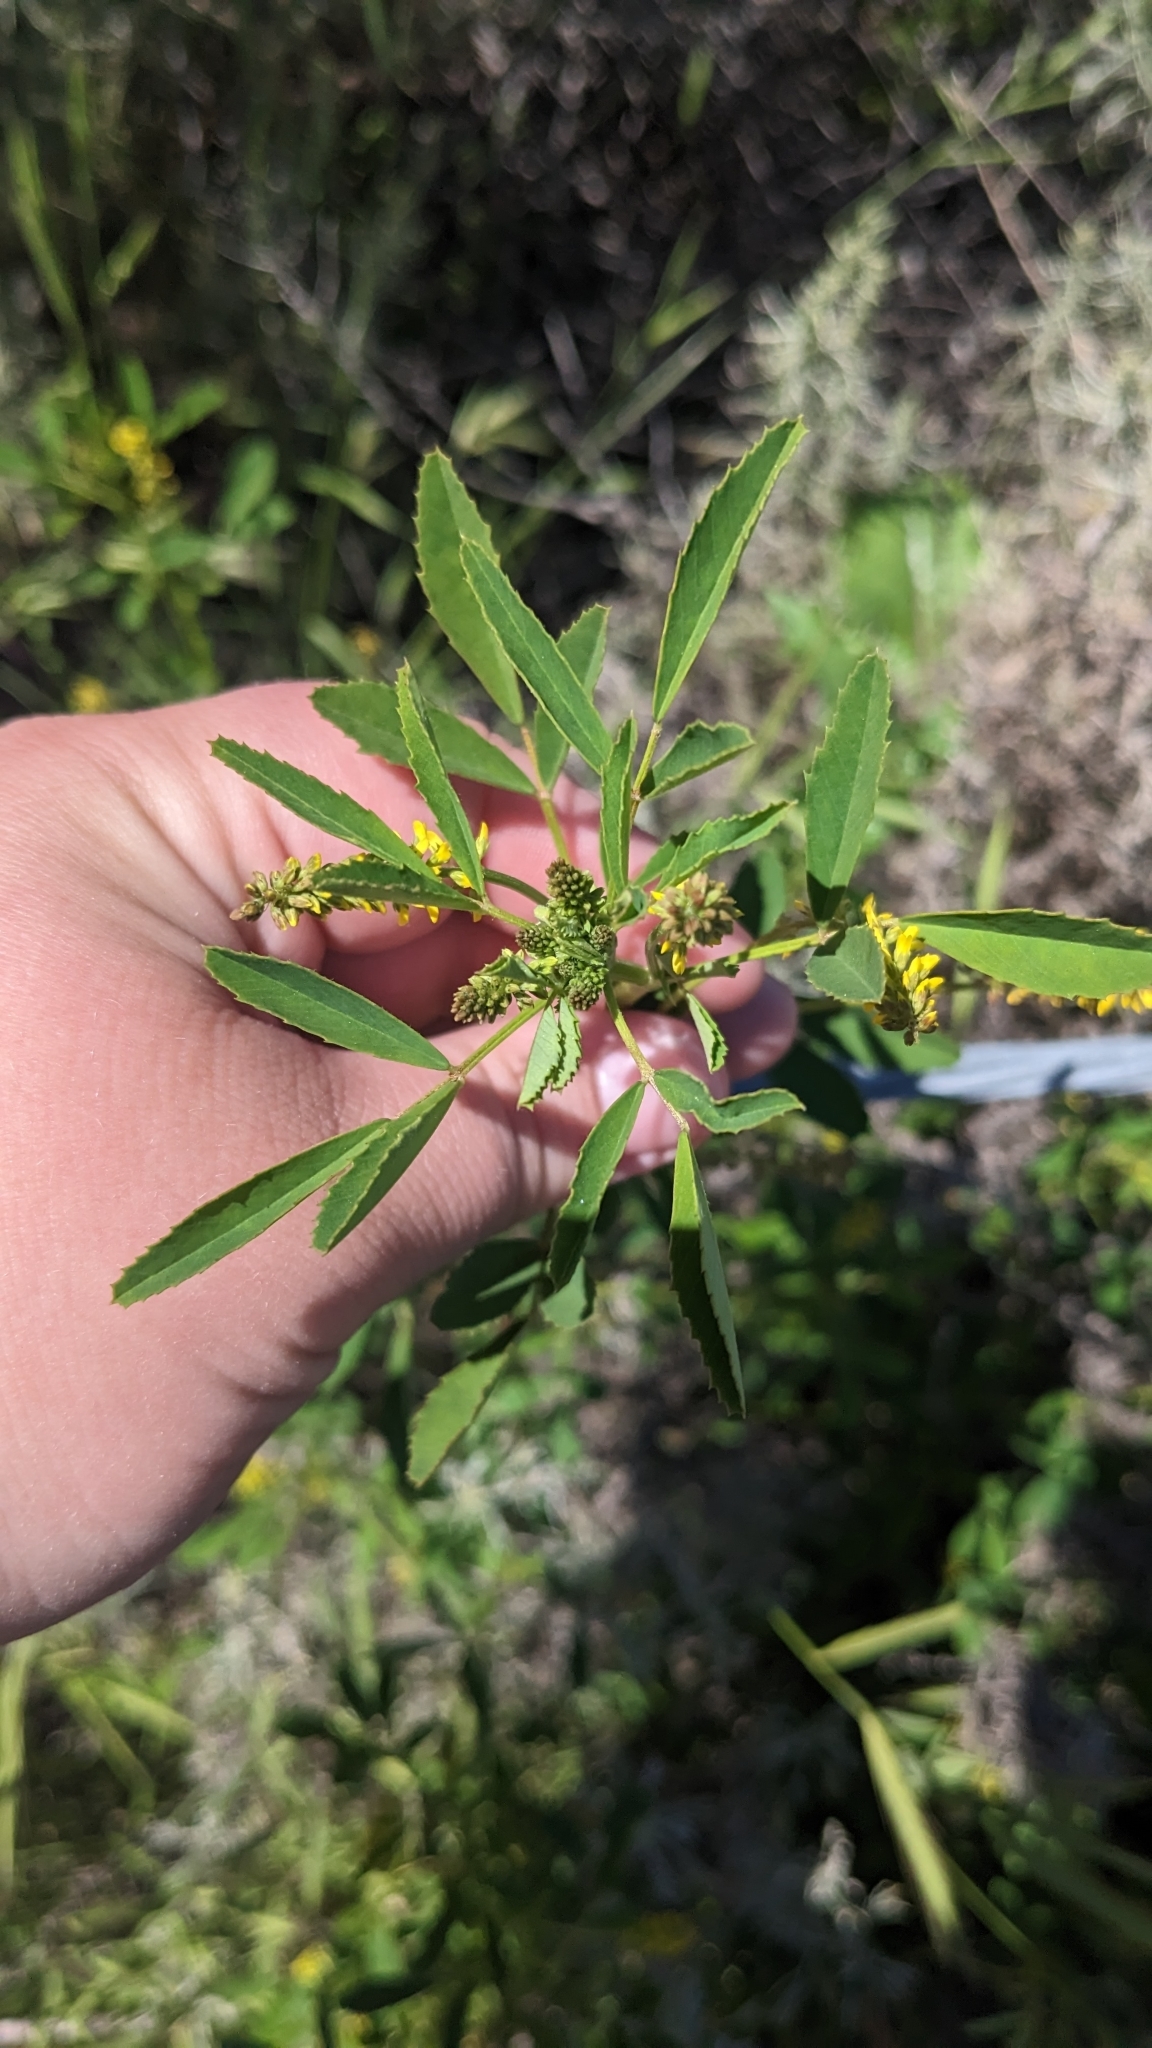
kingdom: Plantae
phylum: Tracheophyta
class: Magnoliopsida
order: Fabales
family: Fabaceae
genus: Melilotus
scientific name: Melilotus indicus
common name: Small melilot
